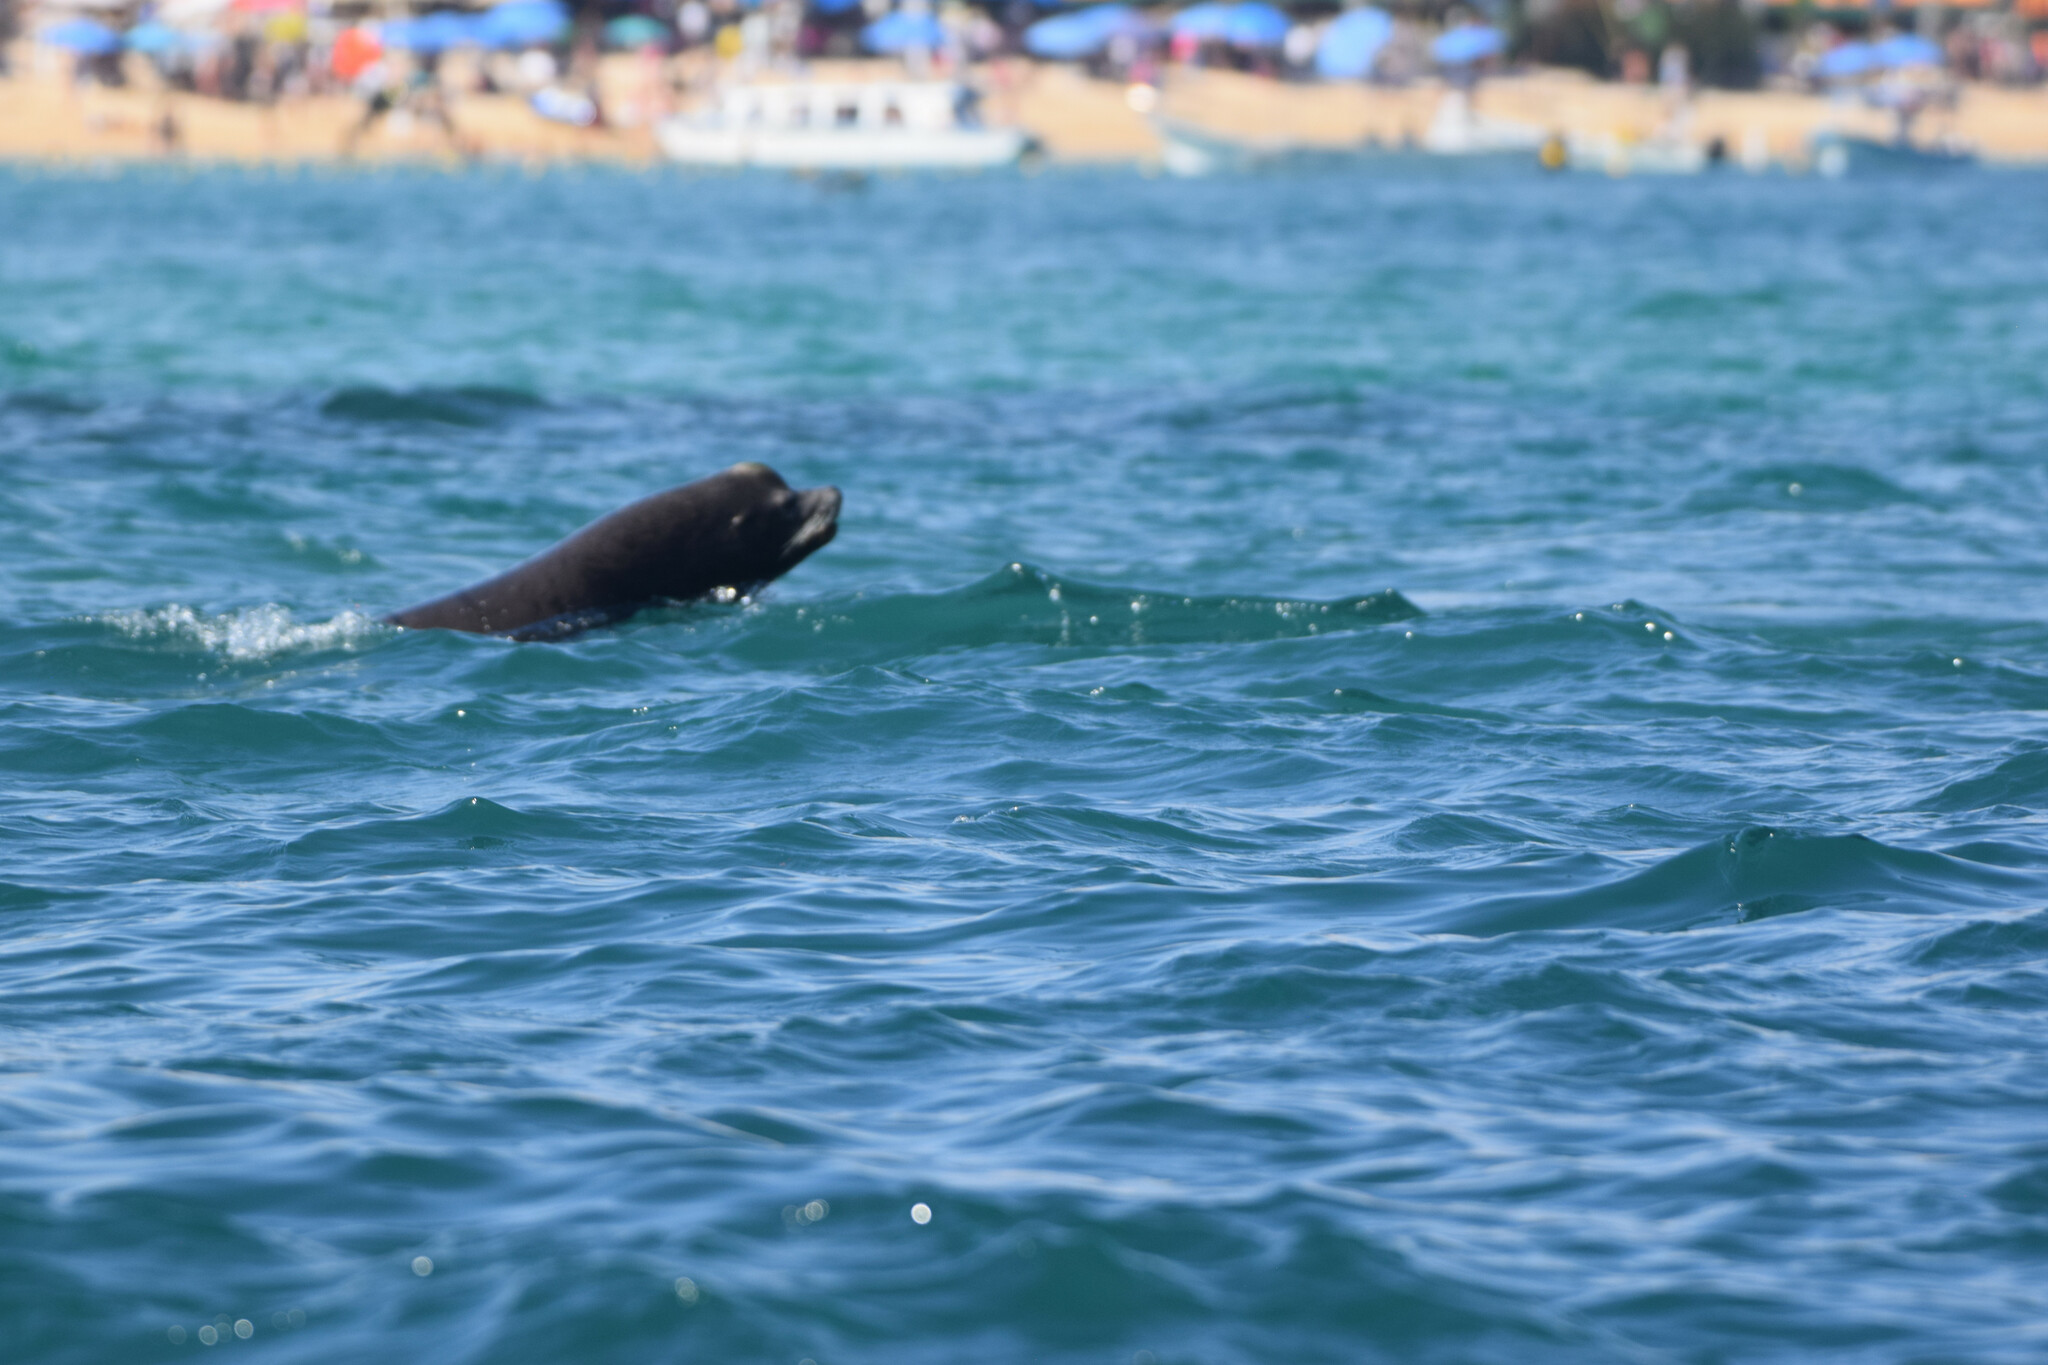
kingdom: Animalia
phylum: Chordata
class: Mammalia
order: Carnivora
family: Otariidae
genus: Zalophus
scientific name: Zalophus californianus
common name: California sea lion
